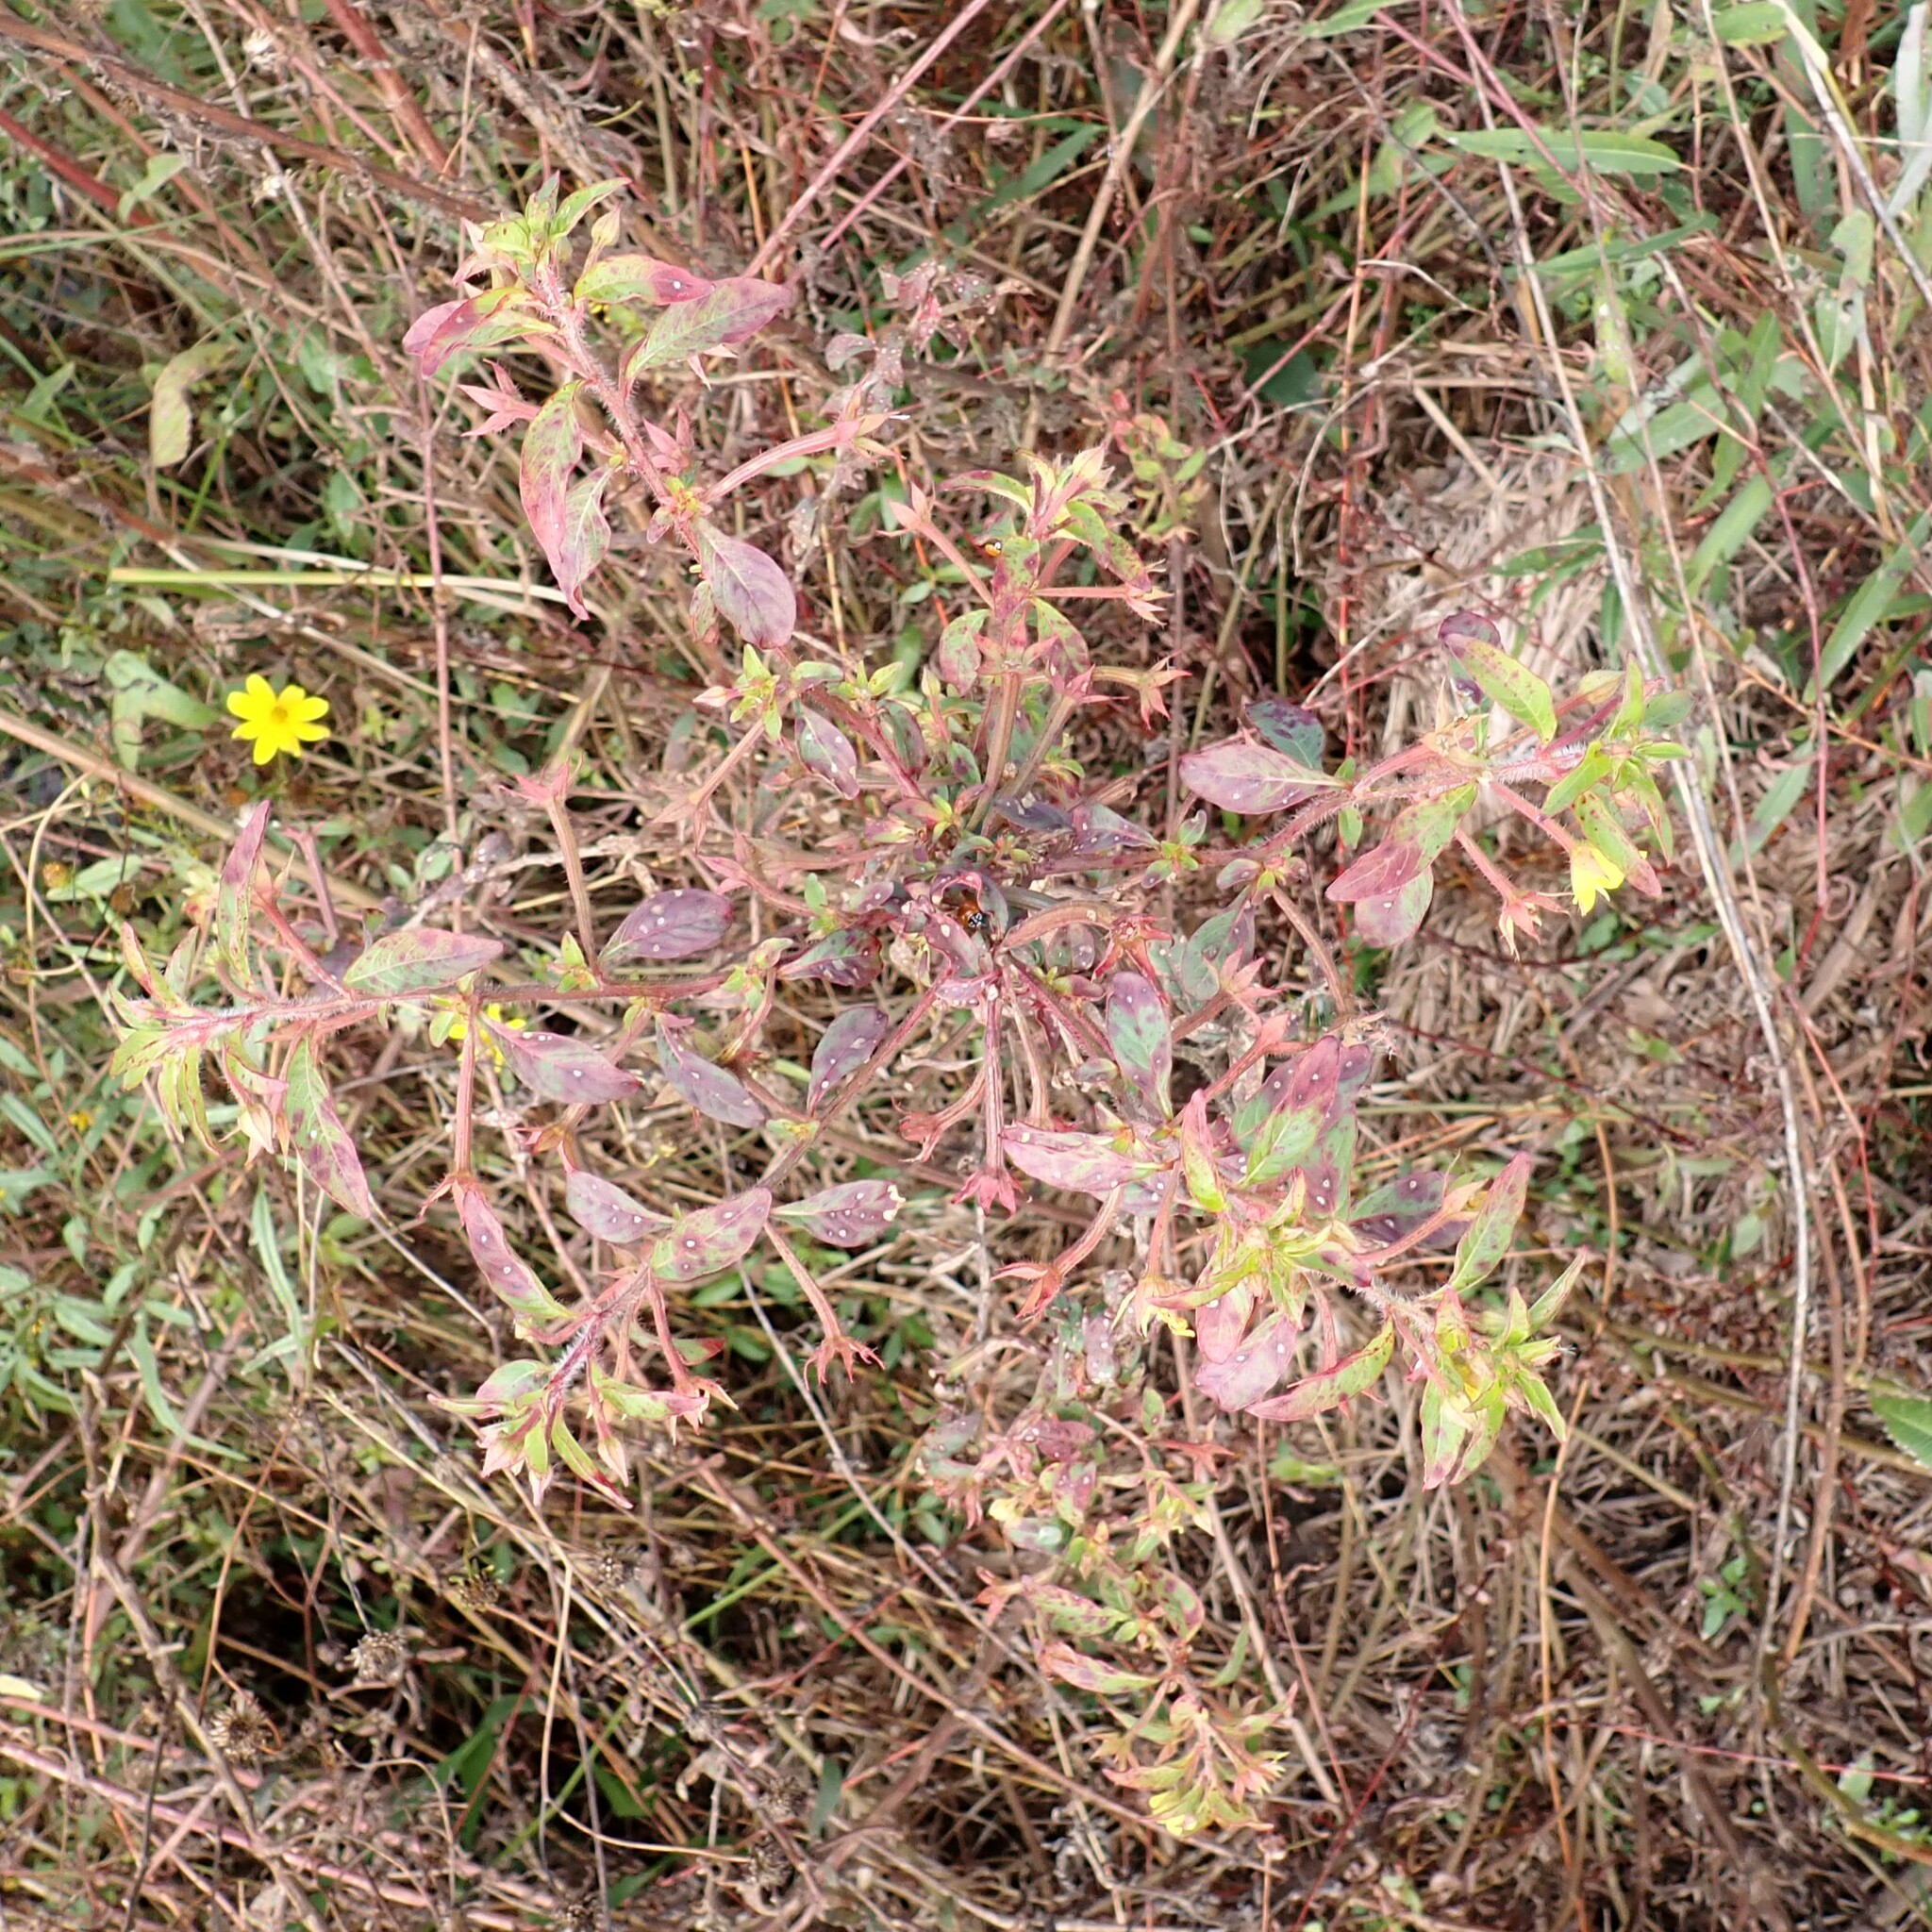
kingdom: Plantae
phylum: Tracheophyta
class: Magnoliopsida
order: Myrtales
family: Onagraceae
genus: Ludwigia
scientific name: Ludwigia leptocarpa
